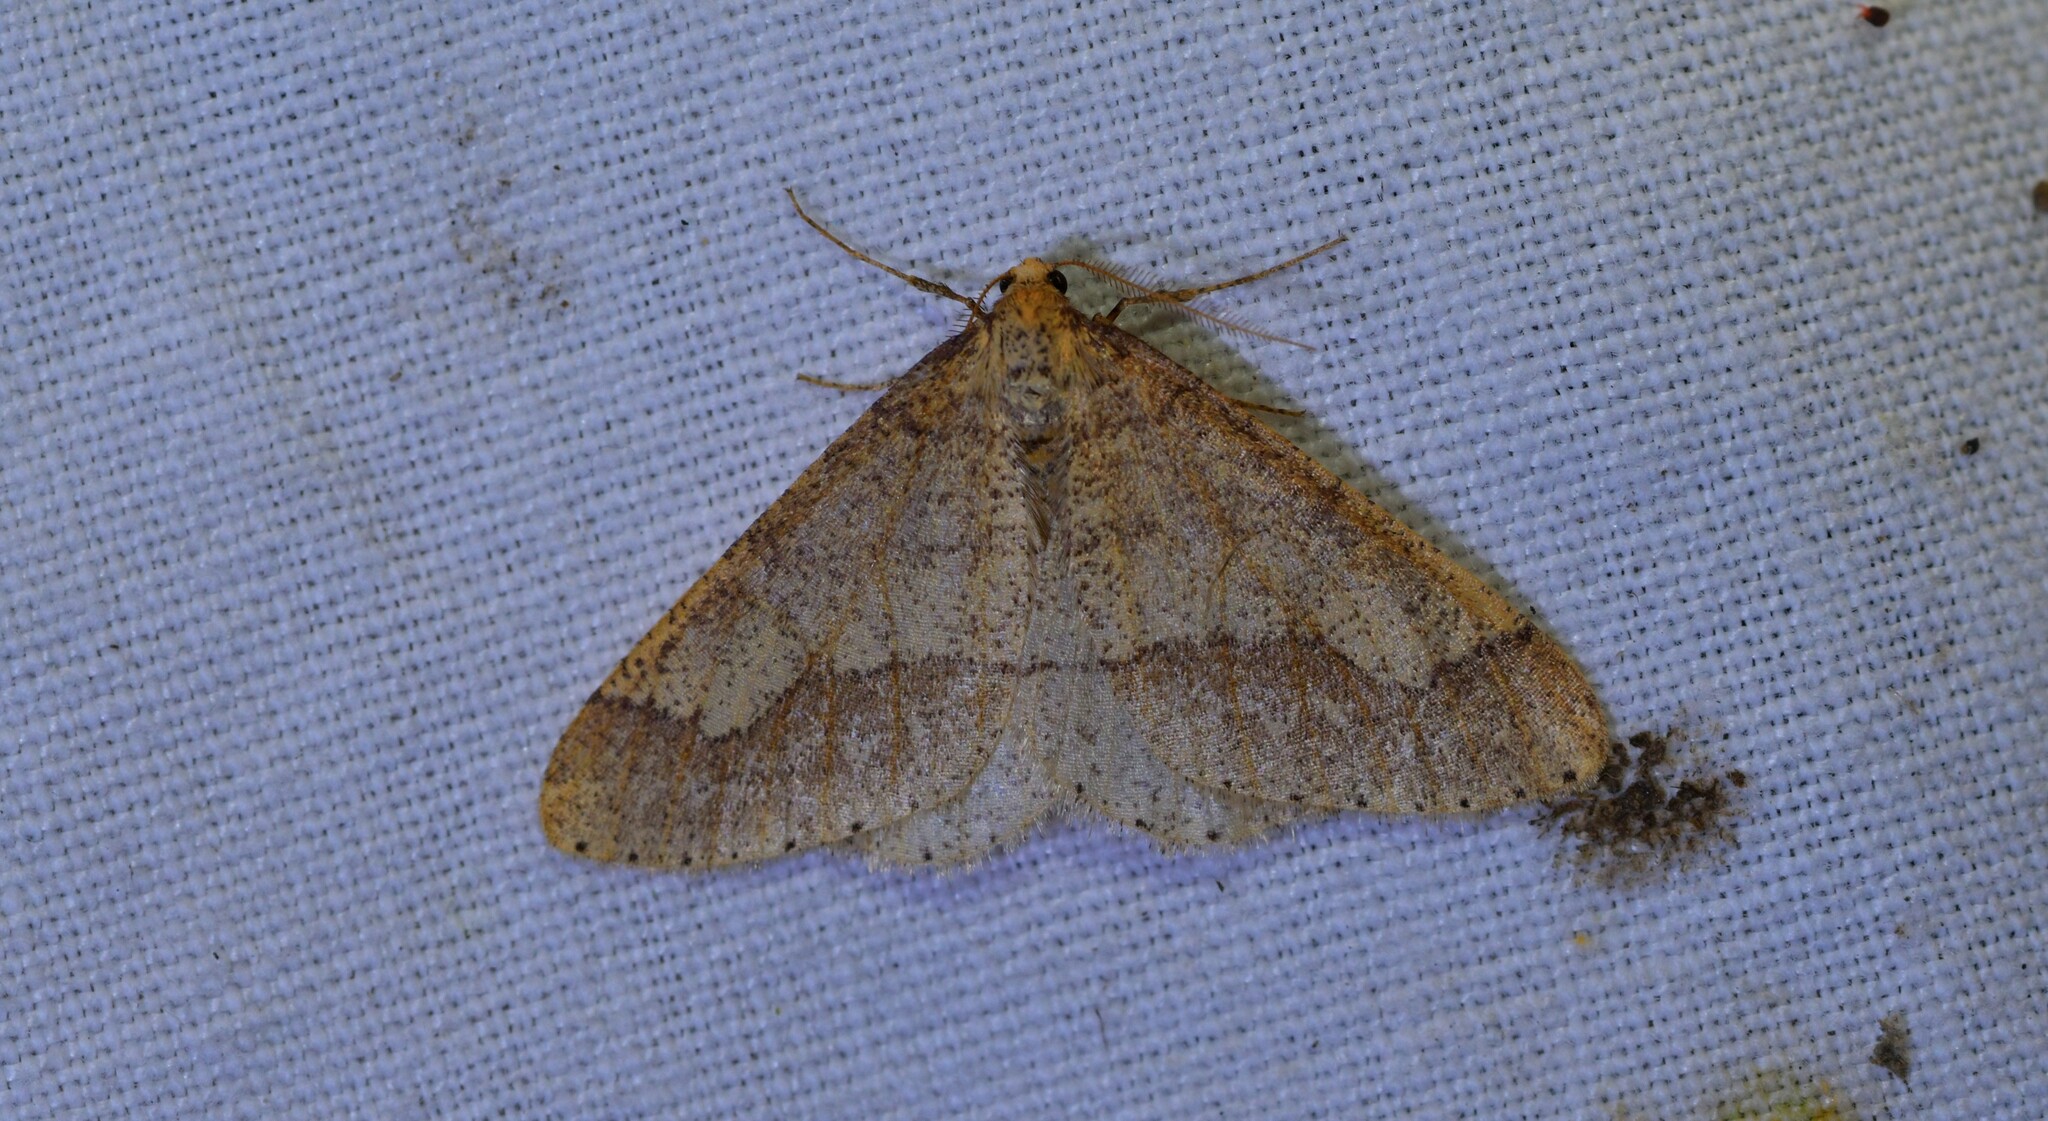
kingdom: Animalia
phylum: Arthropoda
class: Insecta
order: Lepidoptera
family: Geometridae
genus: Agriopis
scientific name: Agriopis marginaria
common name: Dotted border
